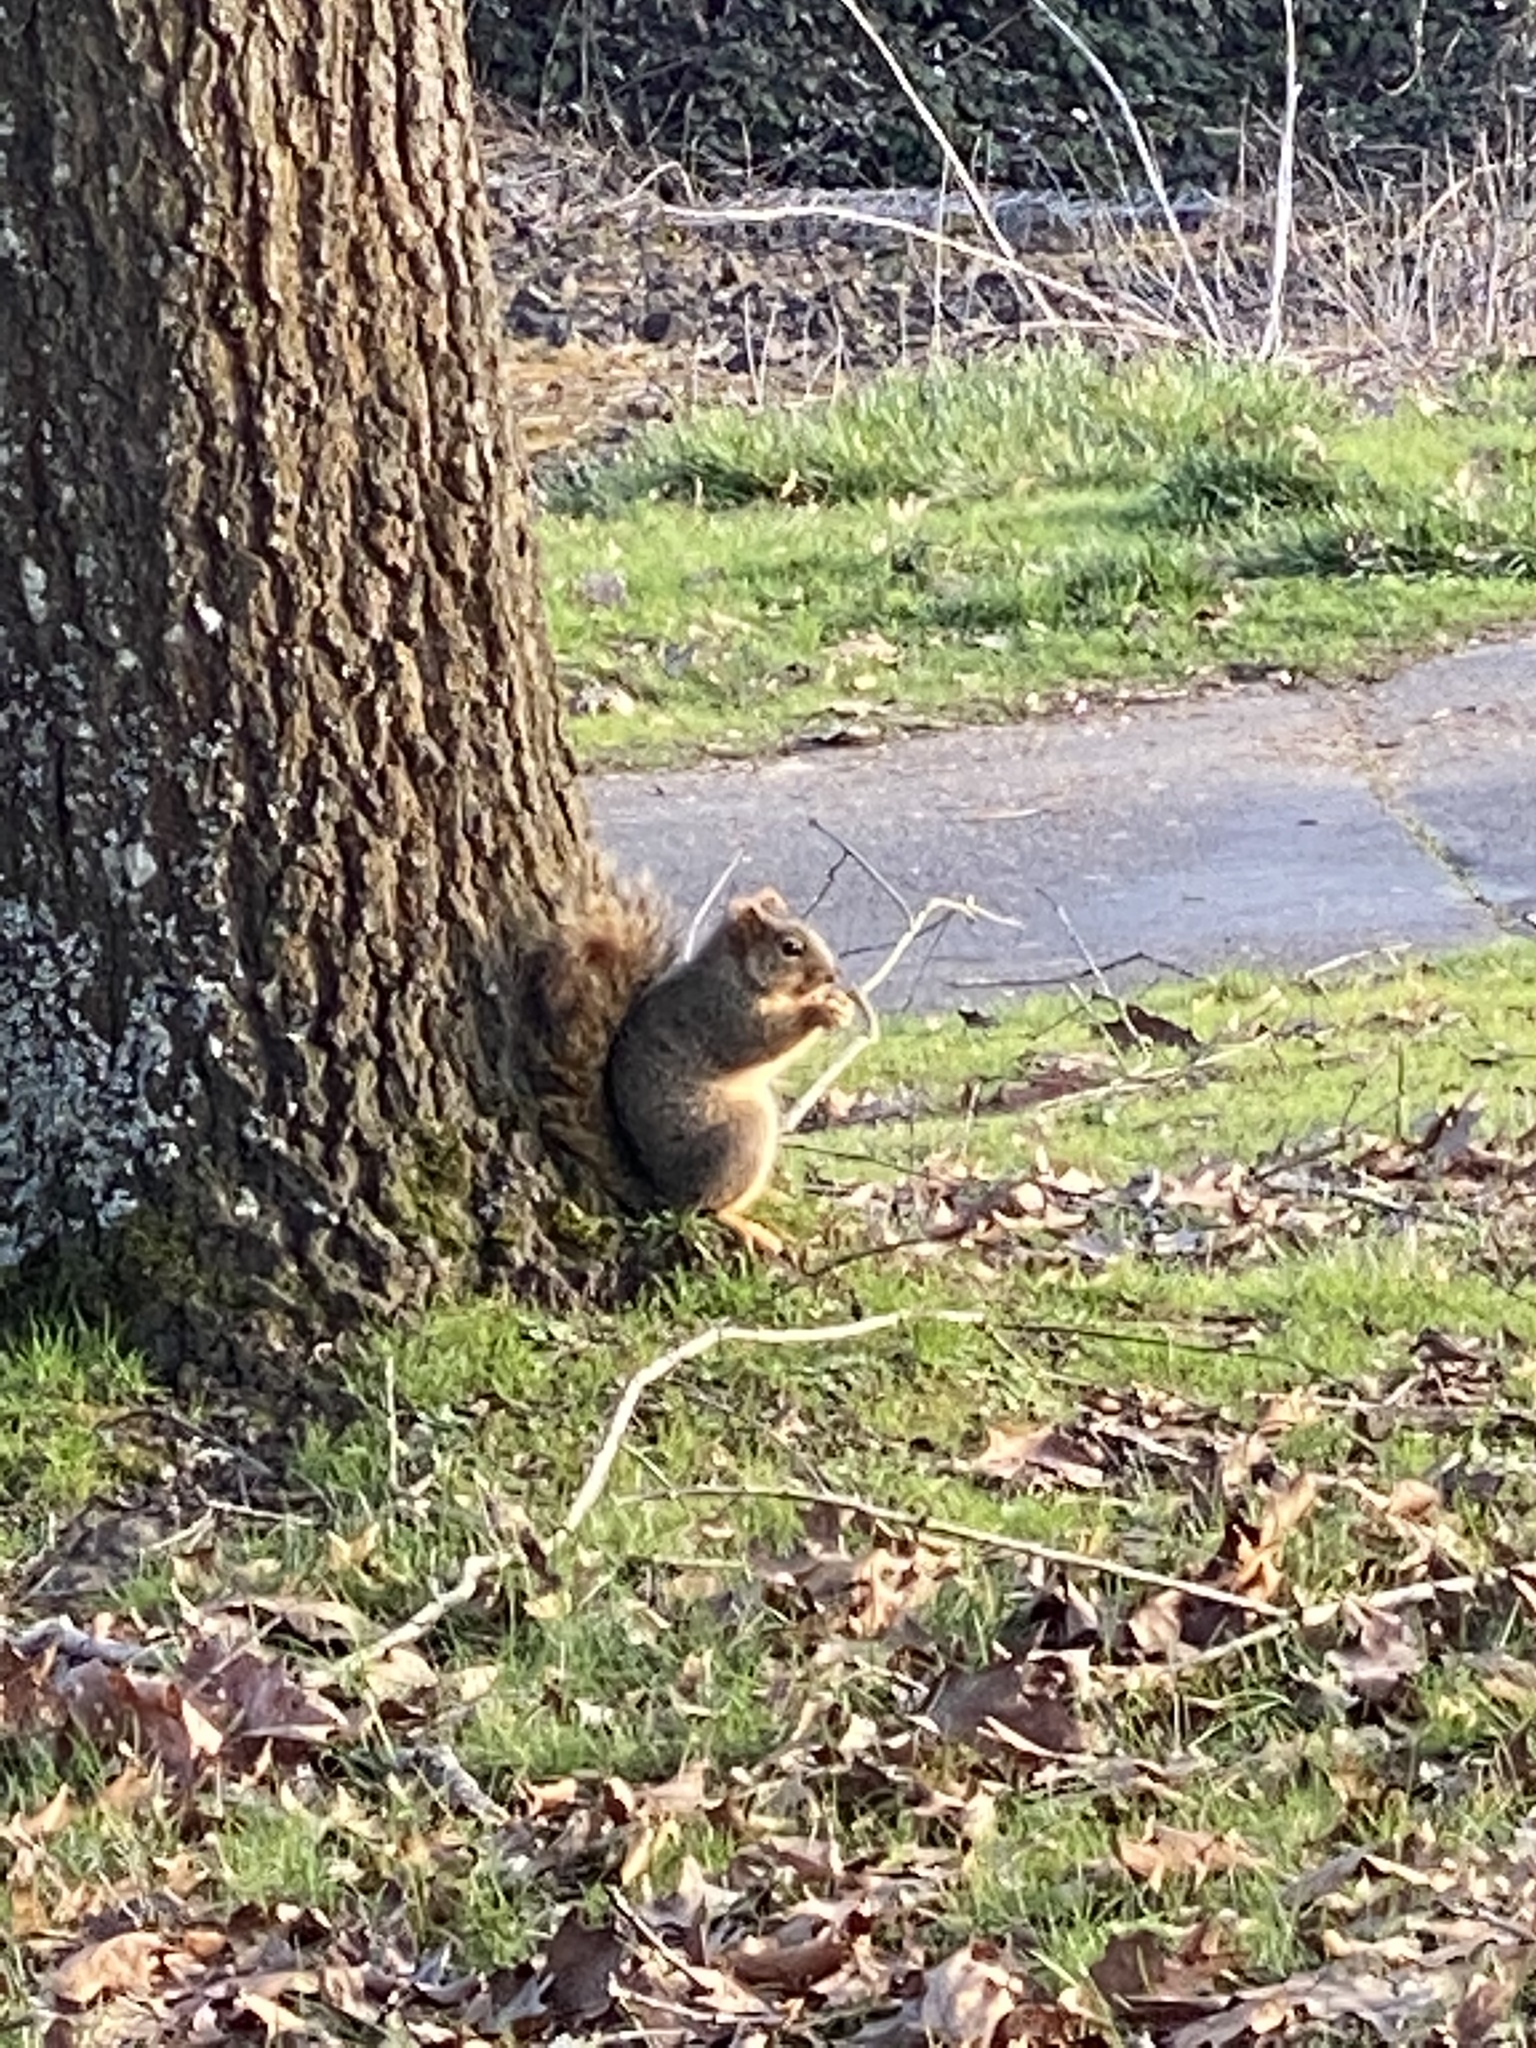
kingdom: Animalia
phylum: Chordata
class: Mammalia
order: Rodentia
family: Sciuridae
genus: Sciurus
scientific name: Sciurus niger
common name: Fox squirrel
